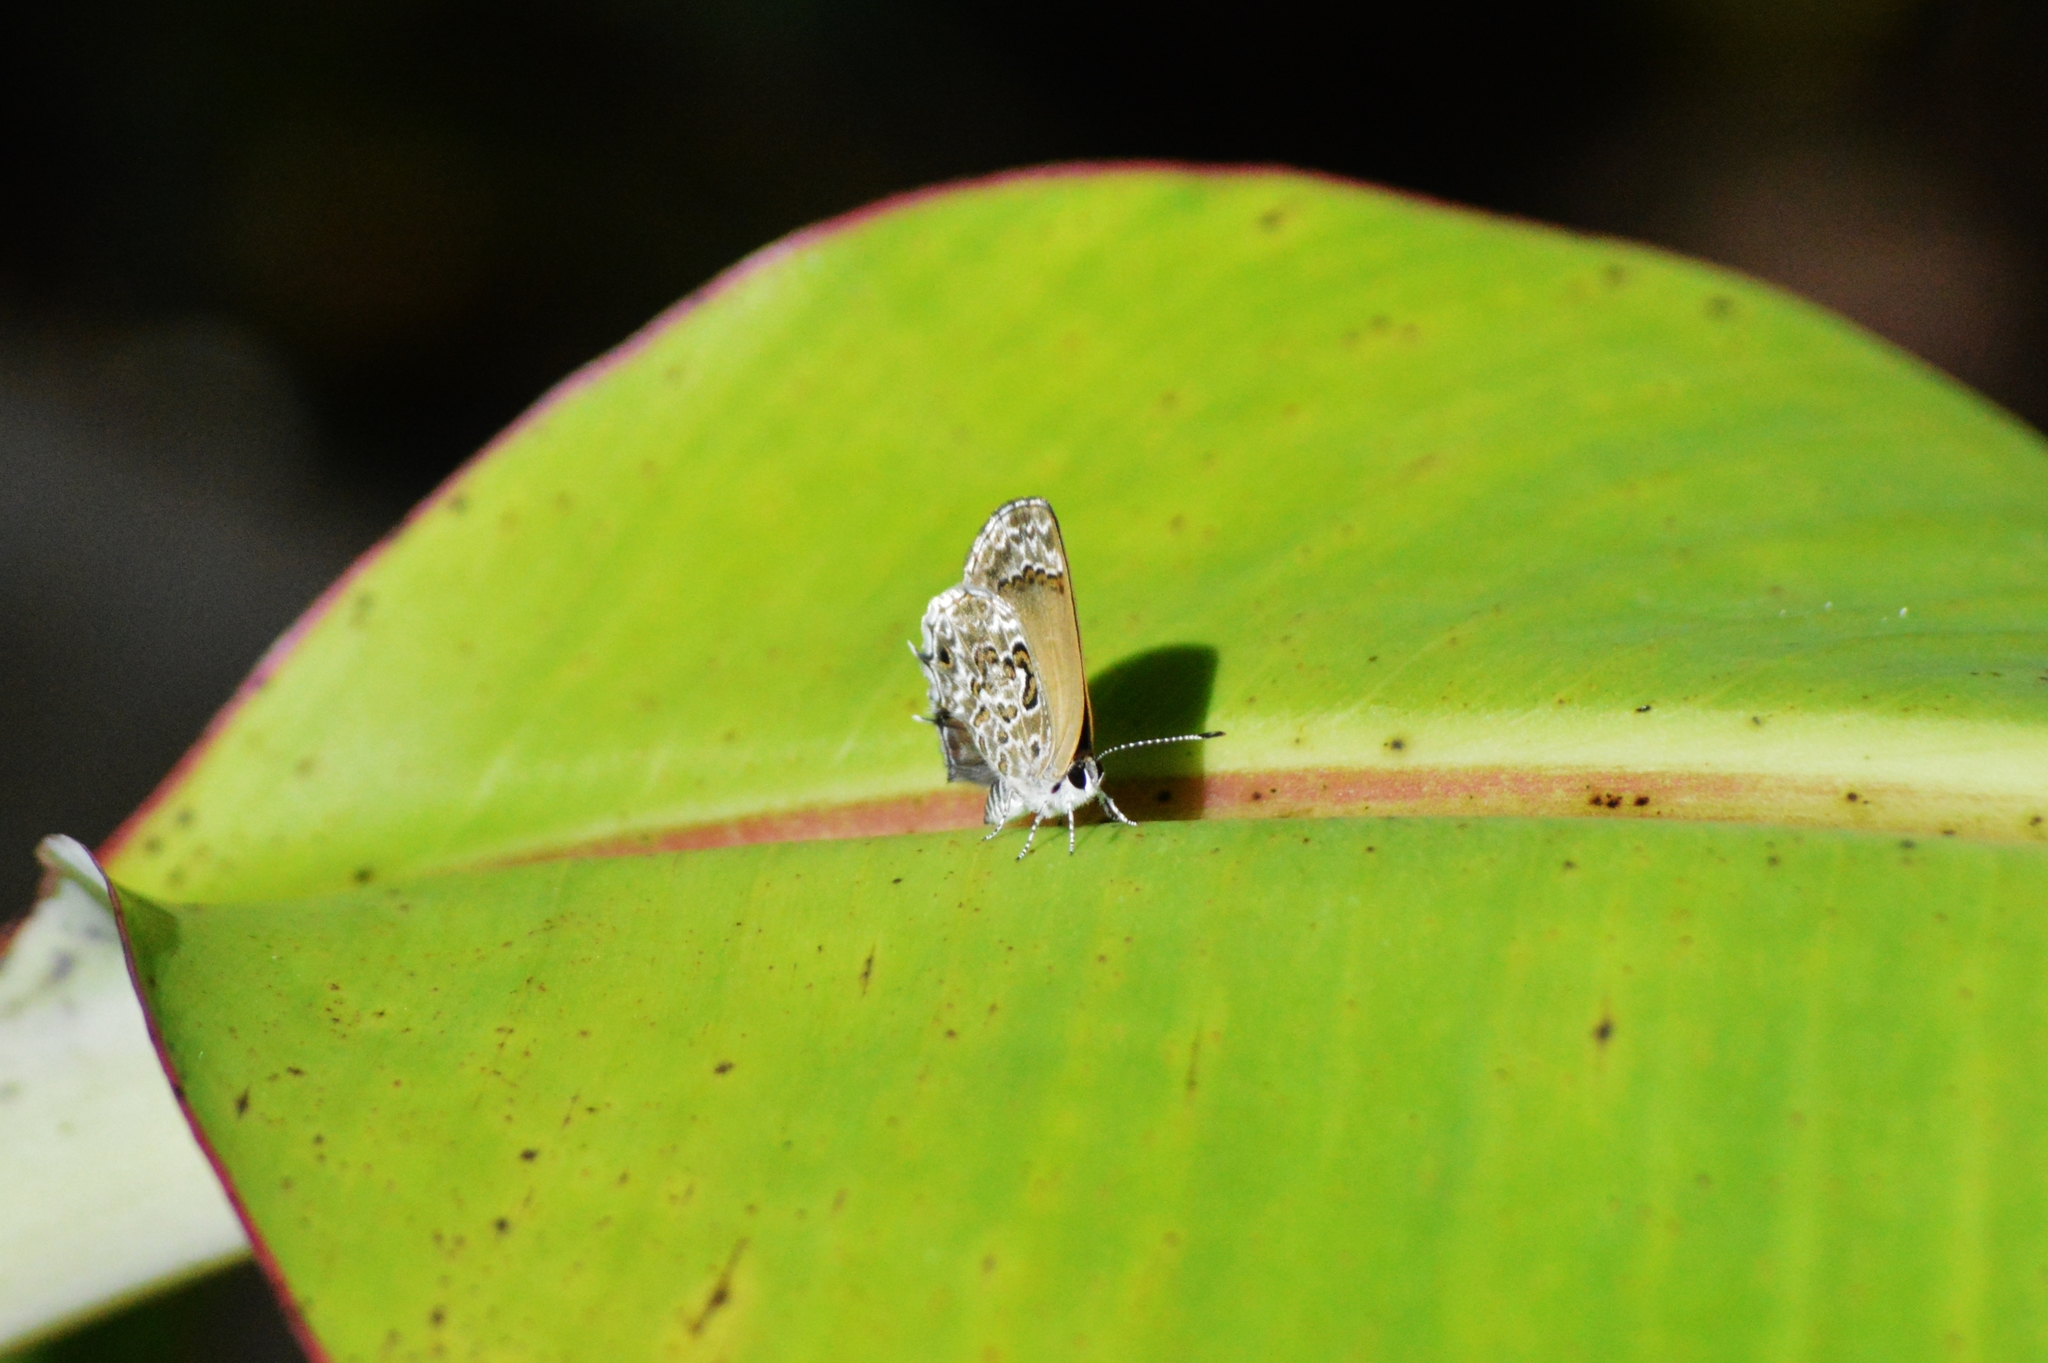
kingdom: Animalia
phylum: Arthropoda
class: Insecta
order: Lepidoptera
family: Lycaenidae
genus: Strymon
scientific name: Strymon astiocha
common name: Gray-spotted scrub-hairstreak
